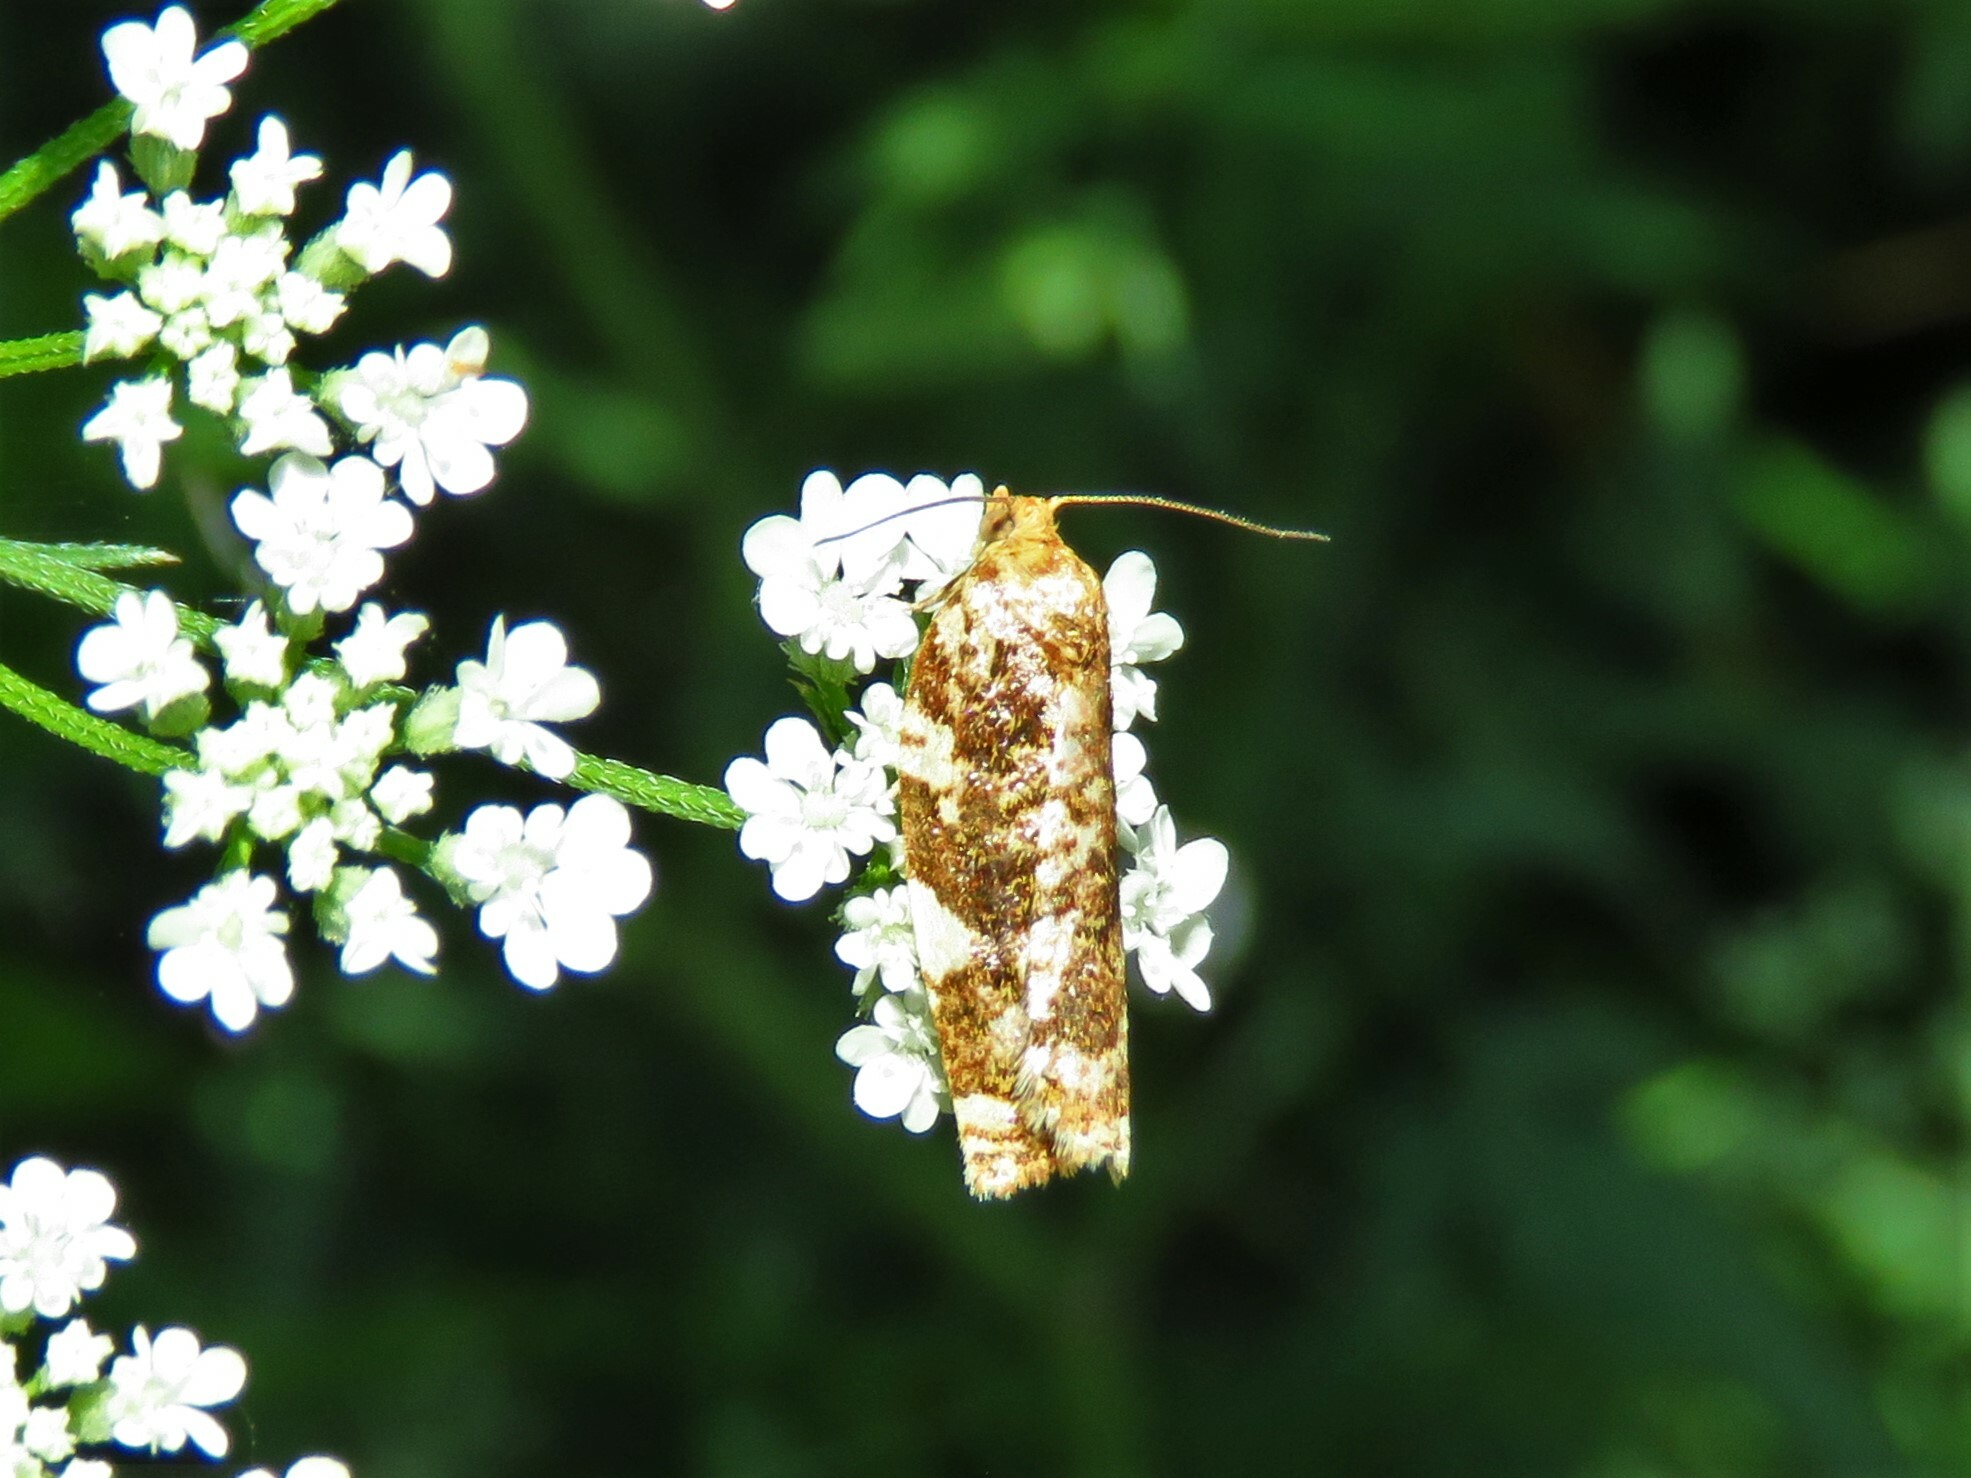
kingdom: Animalia
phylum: Arthropoda
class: Insecta
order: Lepidoptera
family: Tortricidae
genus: Archips
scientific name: Archips argyrospila
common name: Fruit-tree leafroller moth
